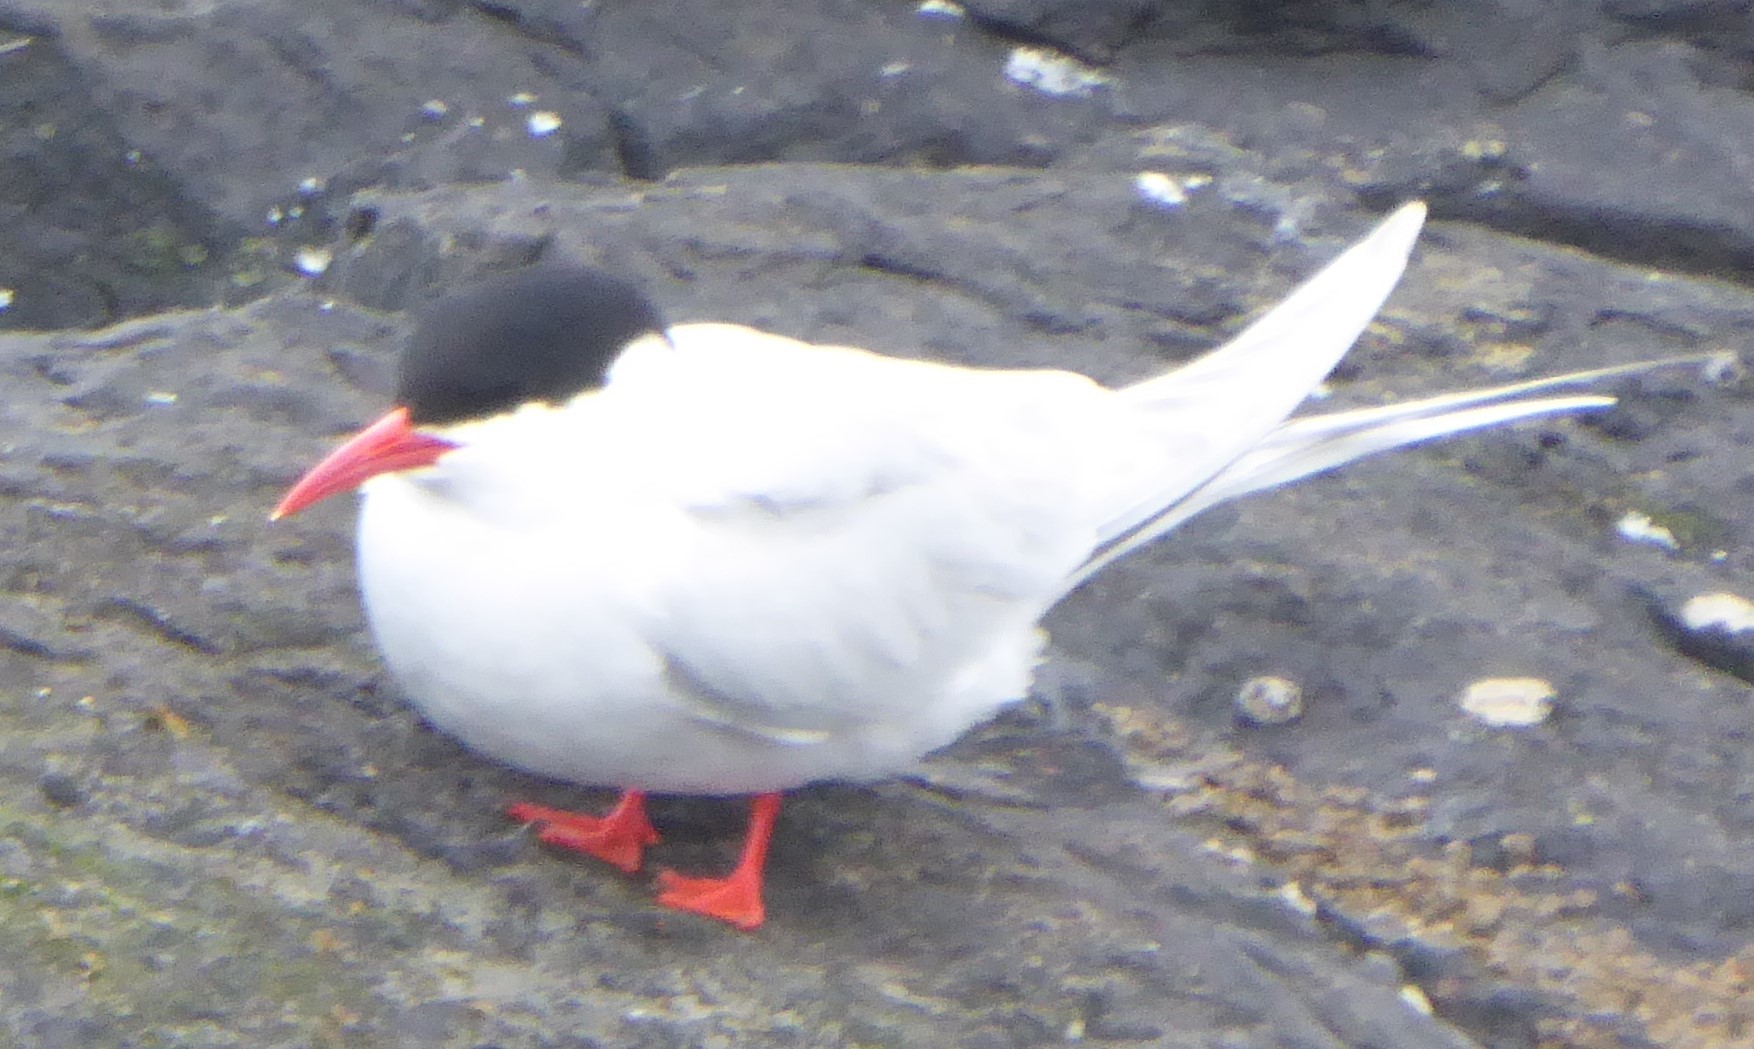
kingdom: Animalia
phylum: Chordata
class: Aves
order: Charadriiformes
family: Laridae
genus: Sterna
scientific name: Sterna hirundinacea
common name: South american tern
